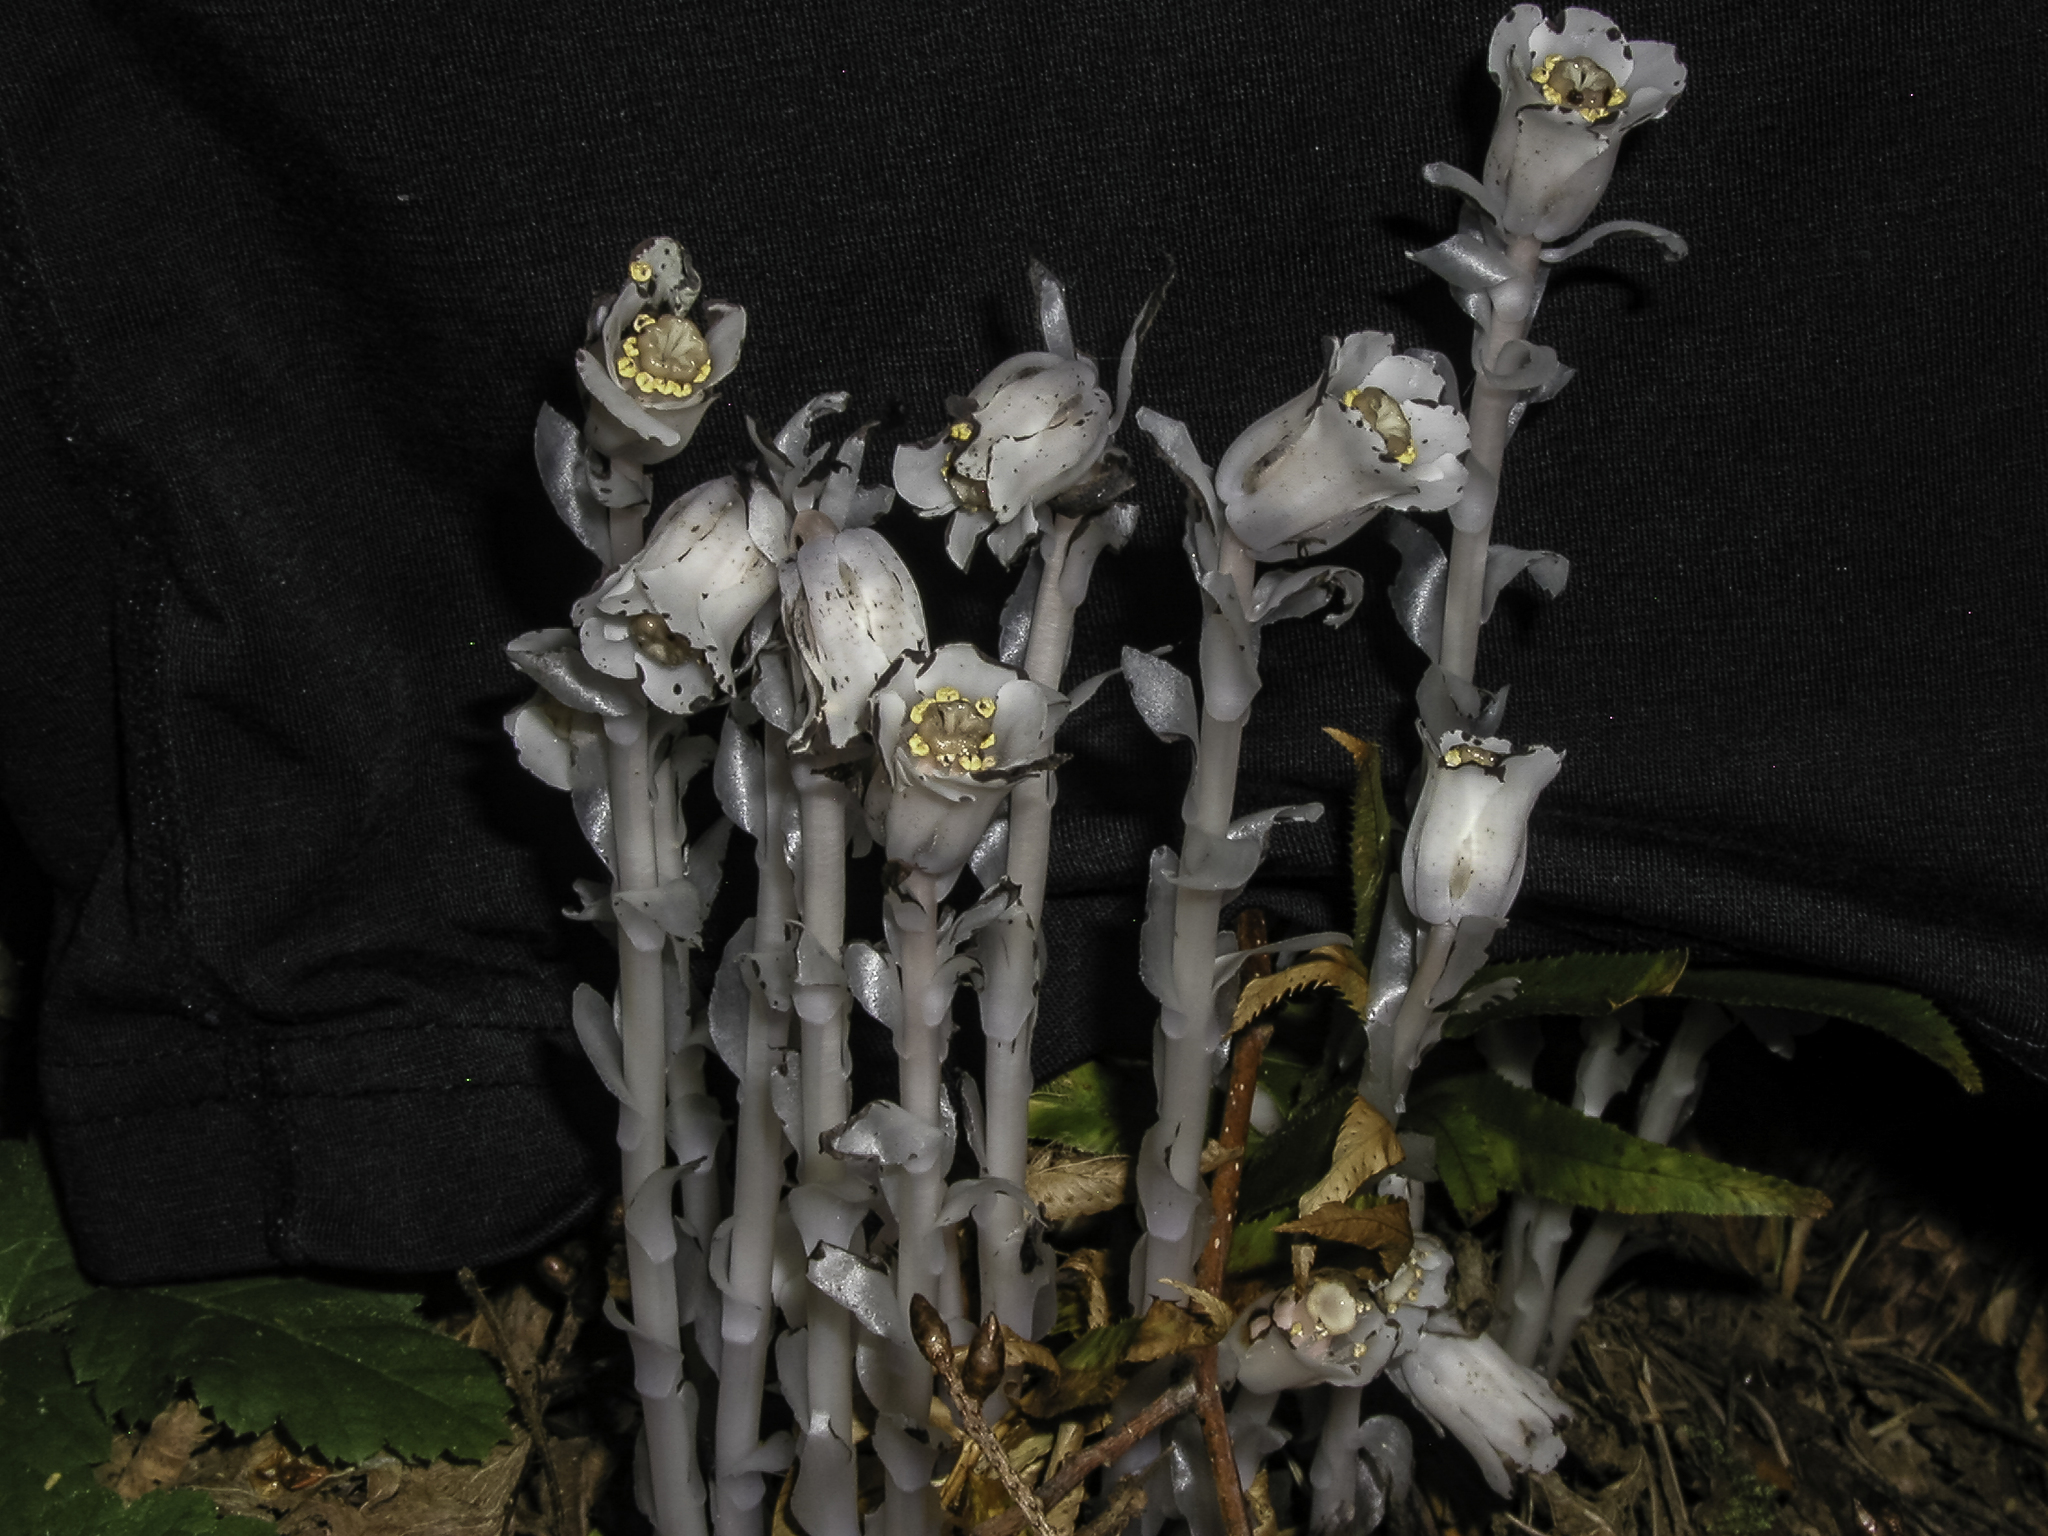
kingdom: Plantae
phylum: Tracheophyta
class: Magnoliopsida
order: Ericales
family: Ericaceae
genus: Monotropa
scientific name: Monotropa uniflora
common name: Convulsion root
